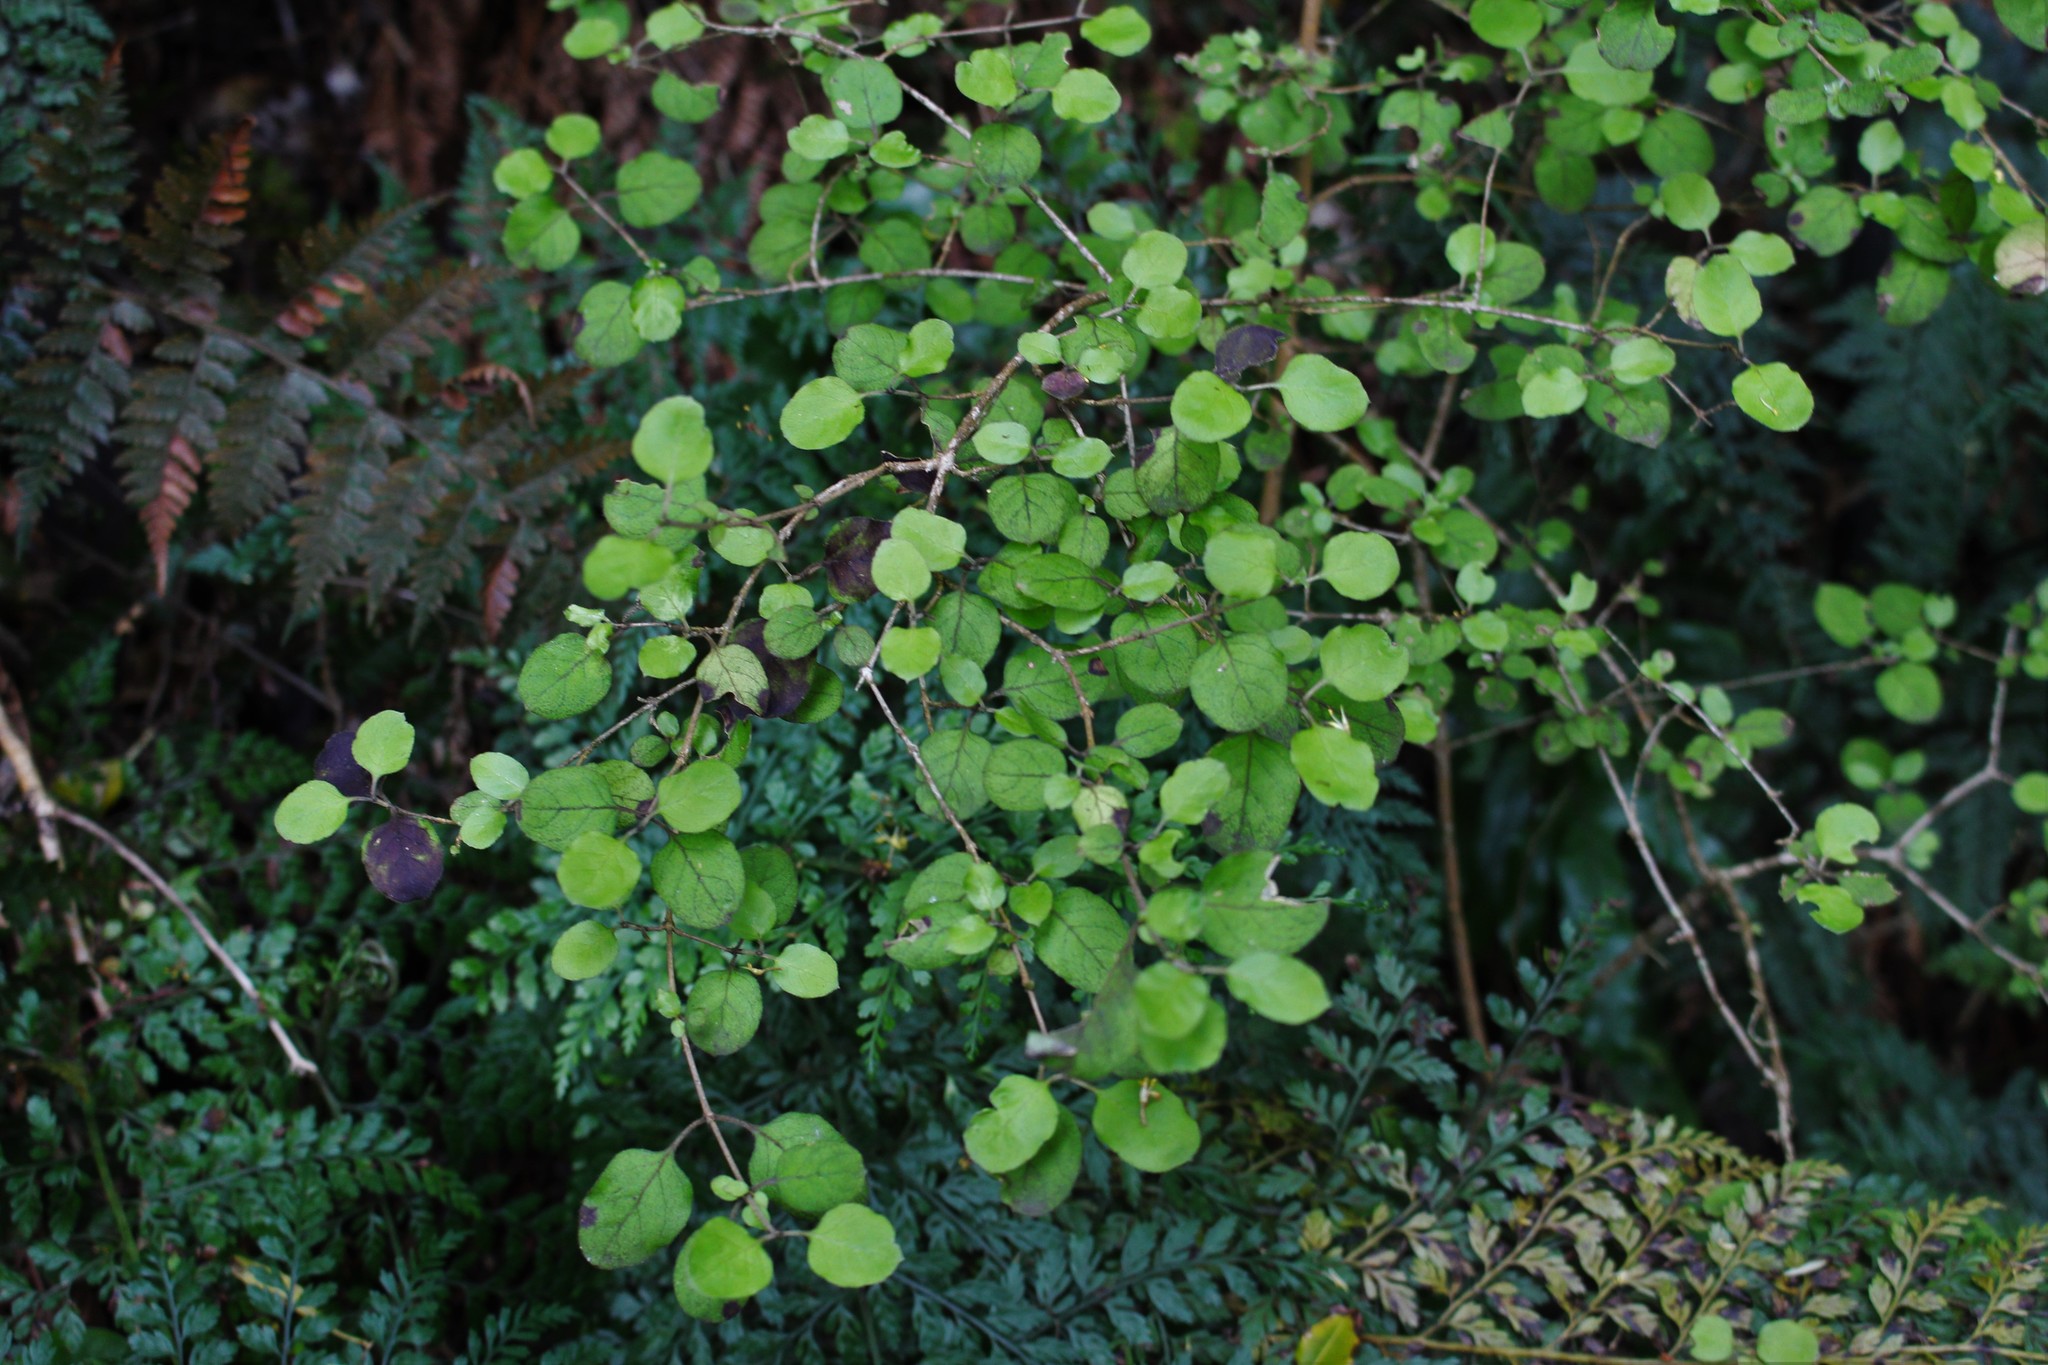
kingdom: Plantae
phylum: Tracheophyta
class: Magnoliopsida
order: Gentianales
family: Rubiaceae
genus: Coprosma
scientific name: Coprosma rotundifolia
